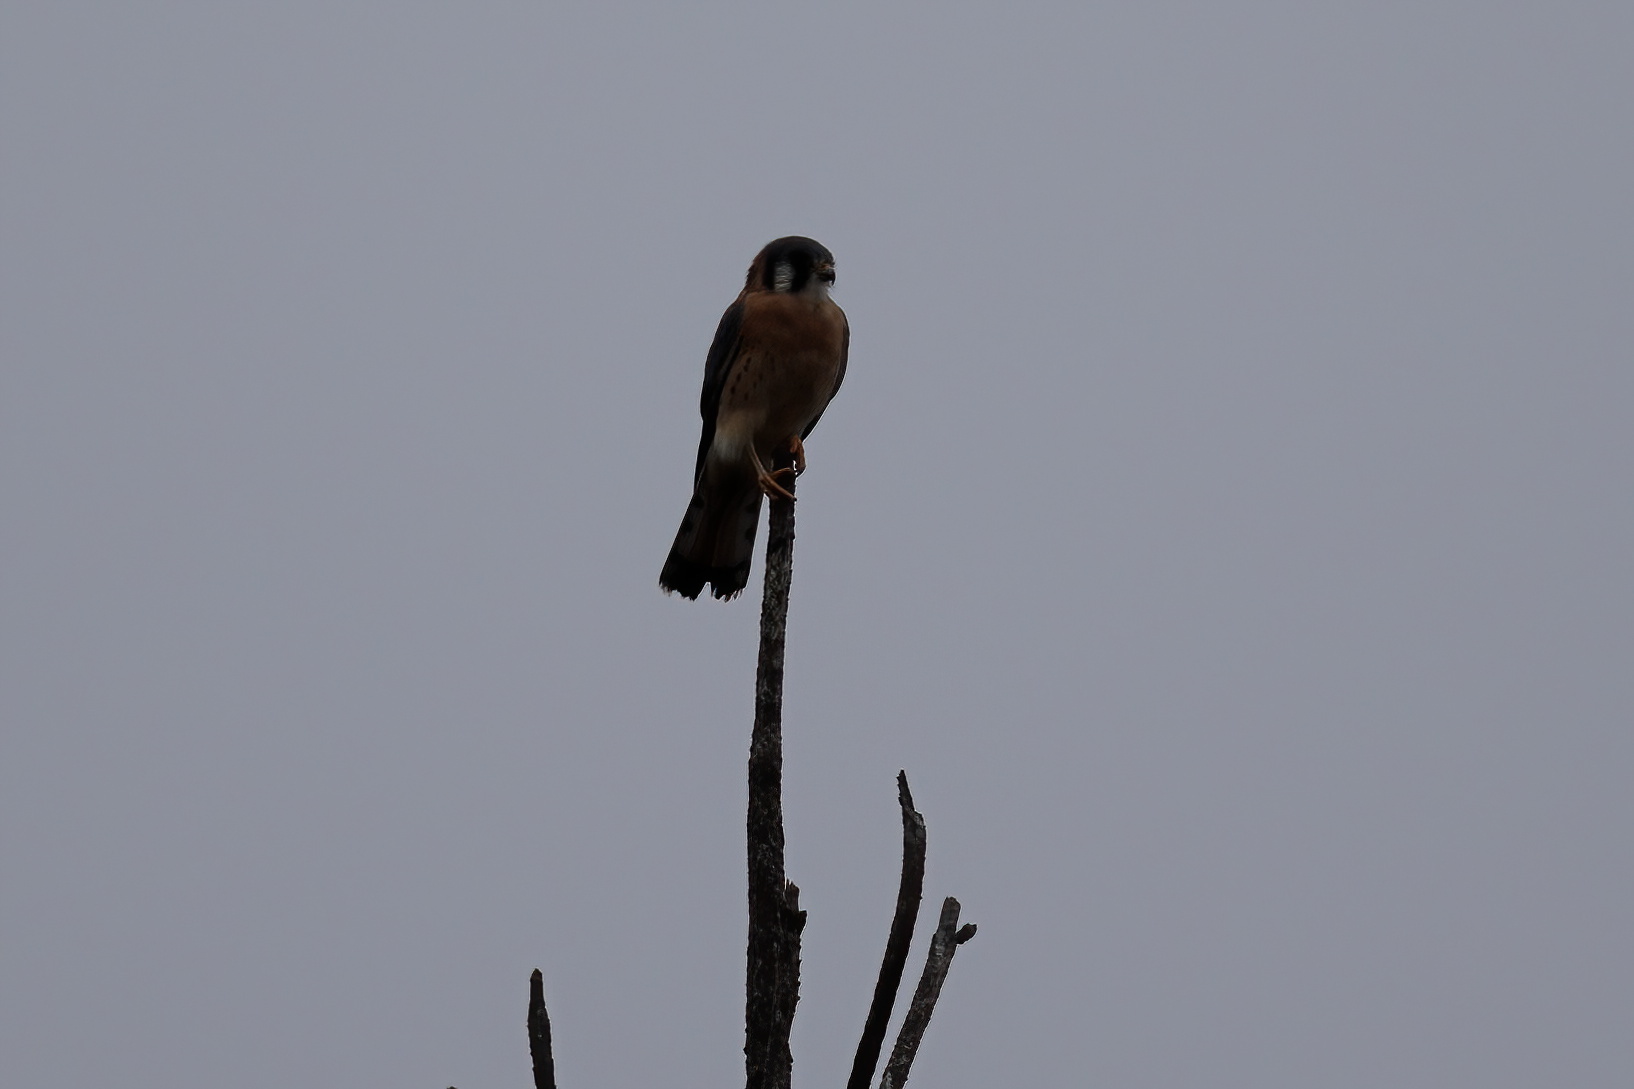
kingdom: Animalia
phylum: Chordata
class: Aves
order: Falconiformes
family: Falconidae
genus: Falco
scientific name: Falco sparverius
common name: American kestrel
